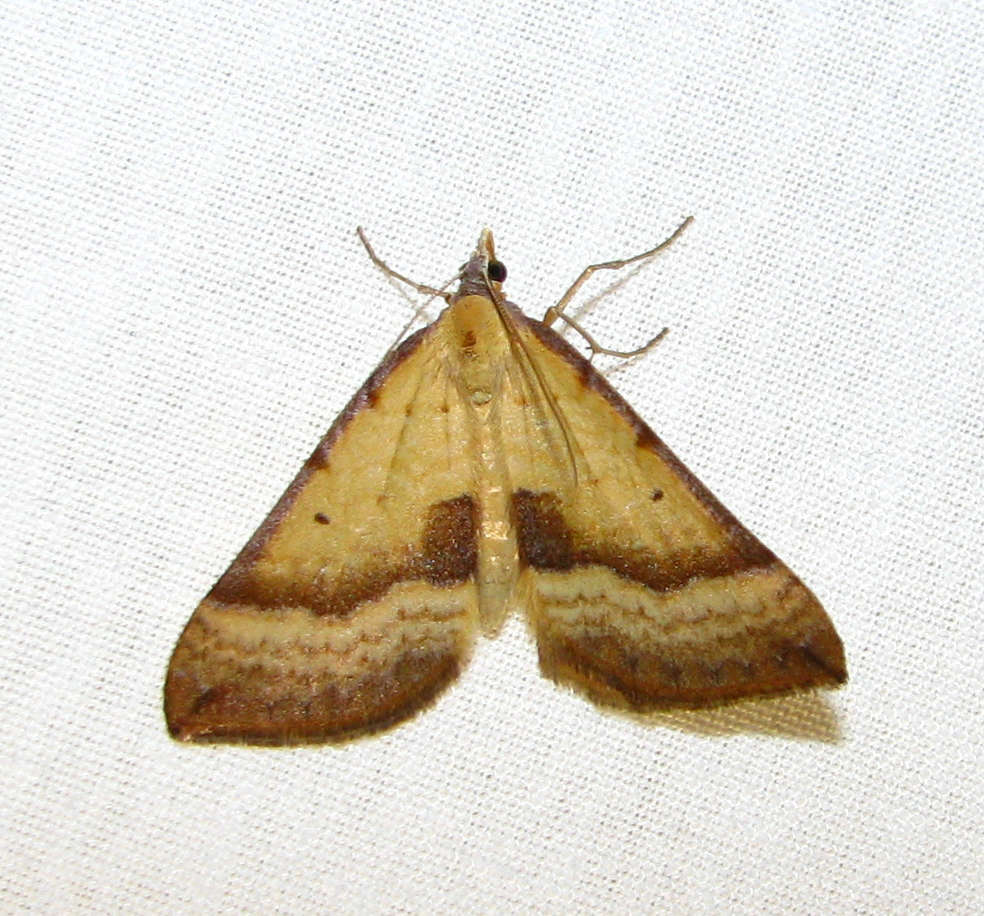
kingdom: Animalia
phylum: Arthropoda
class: Insecta
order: Lepidoptera
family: Geometridae
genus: Anachloris
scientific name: Anachloris subochraria
